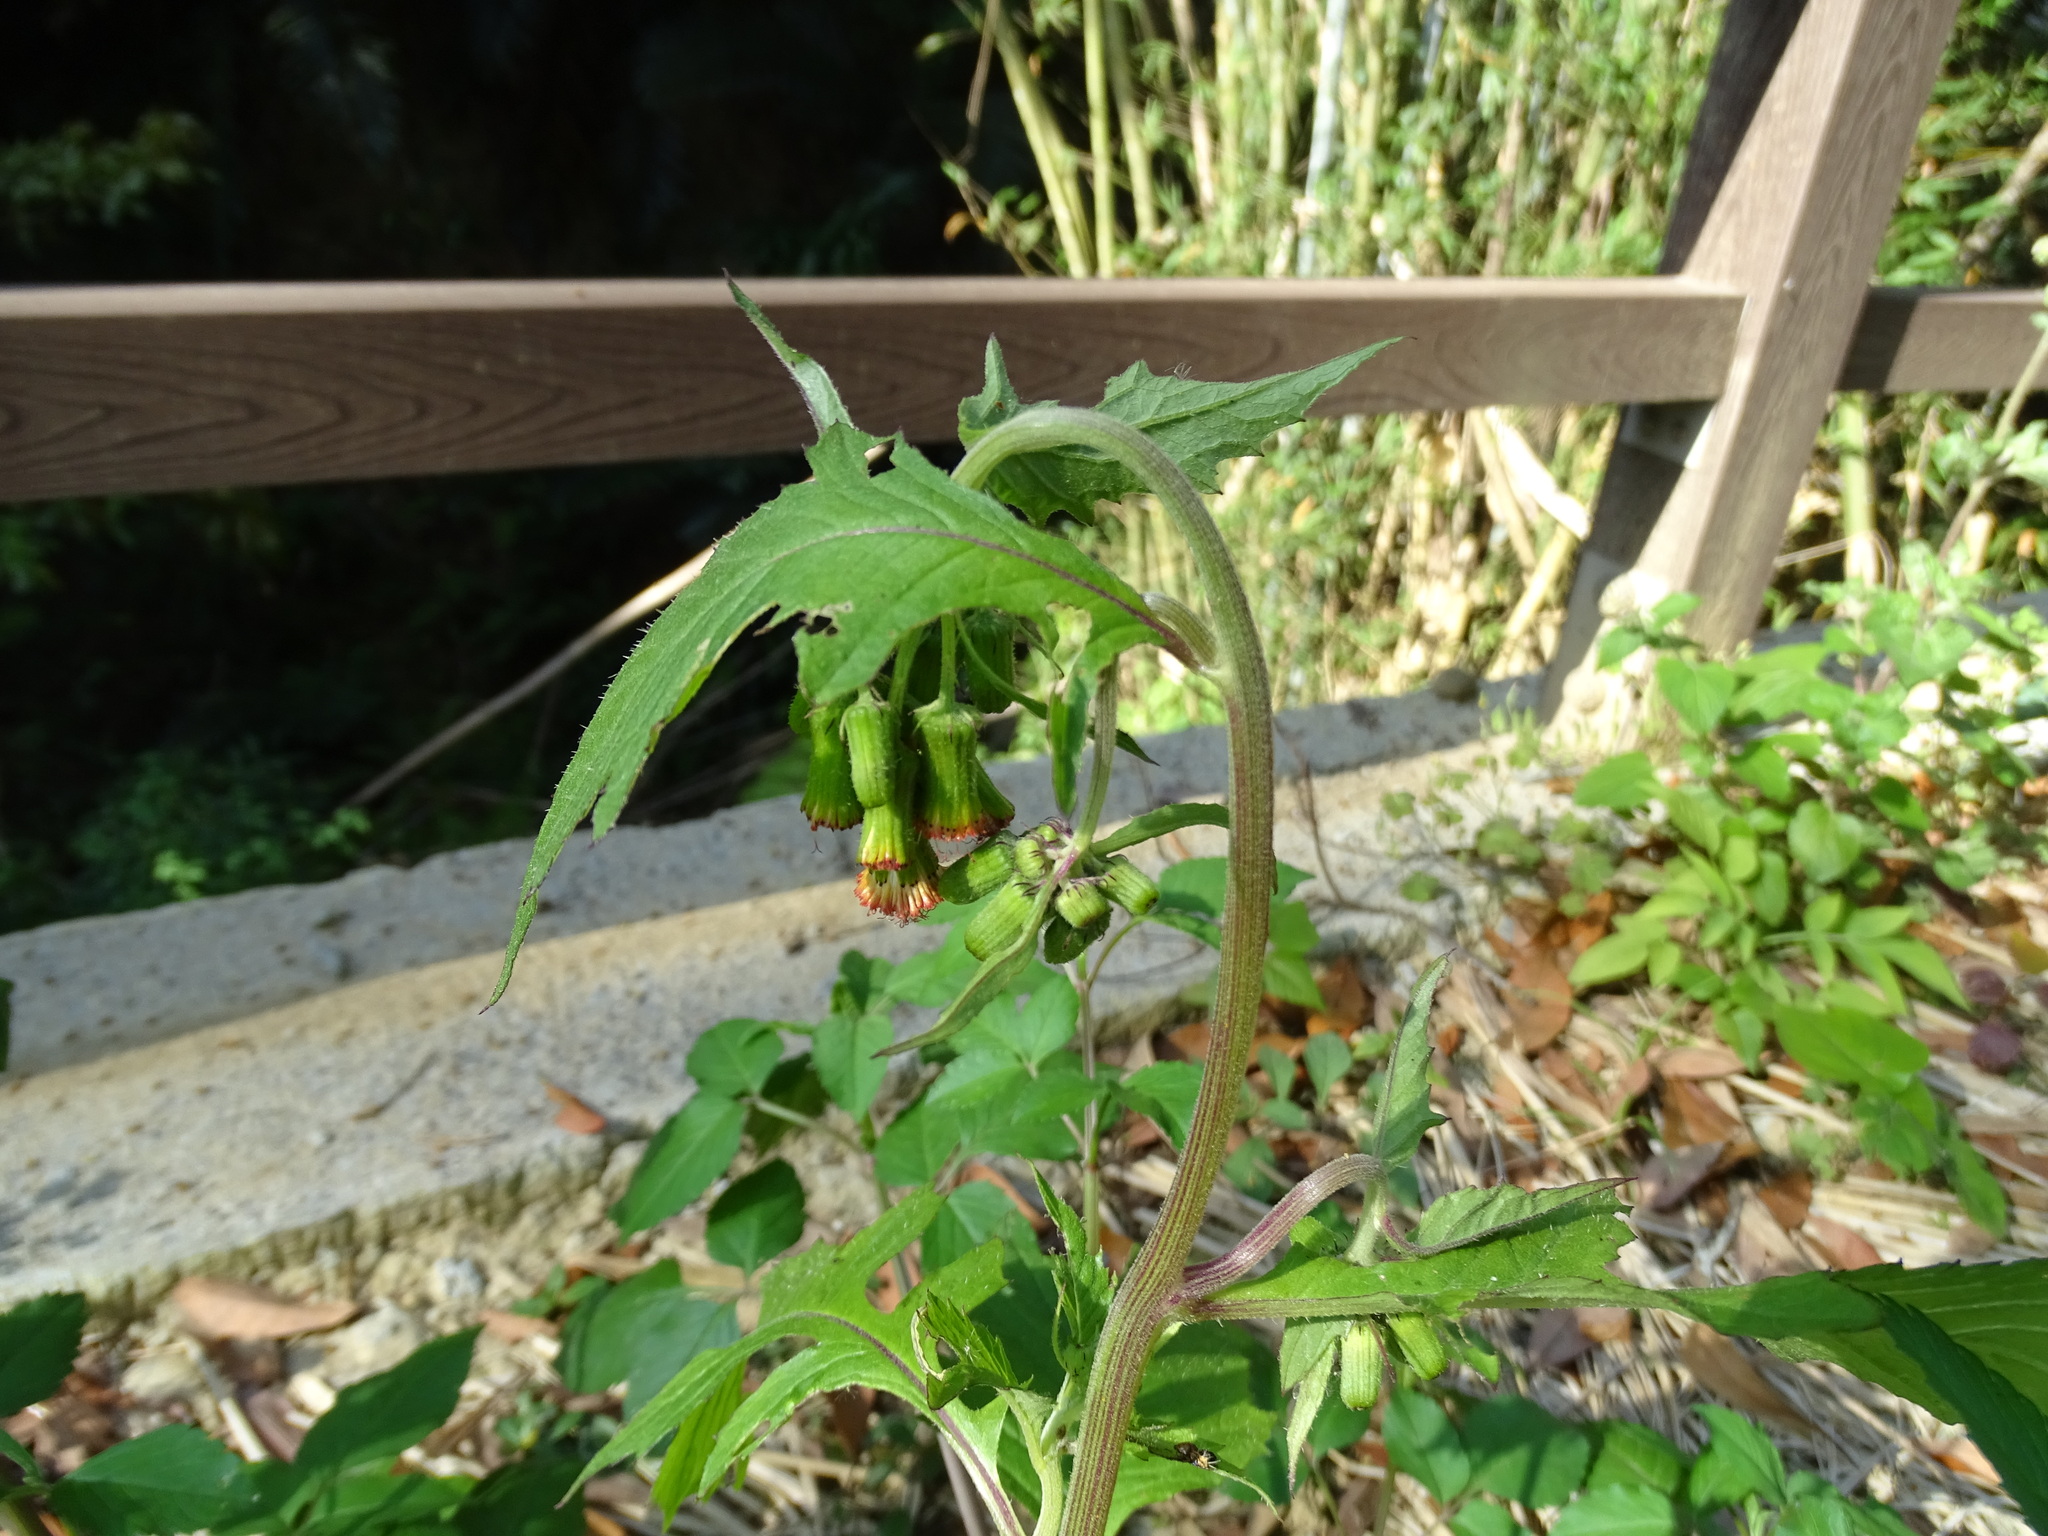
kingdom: Plantae
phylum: Tracheophyta
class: Magnoliopsida
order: Asterales
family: Asteraceae
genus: Crassocephalum
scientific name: Crassocephalum crepidioides
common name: Redflower ragleaf
